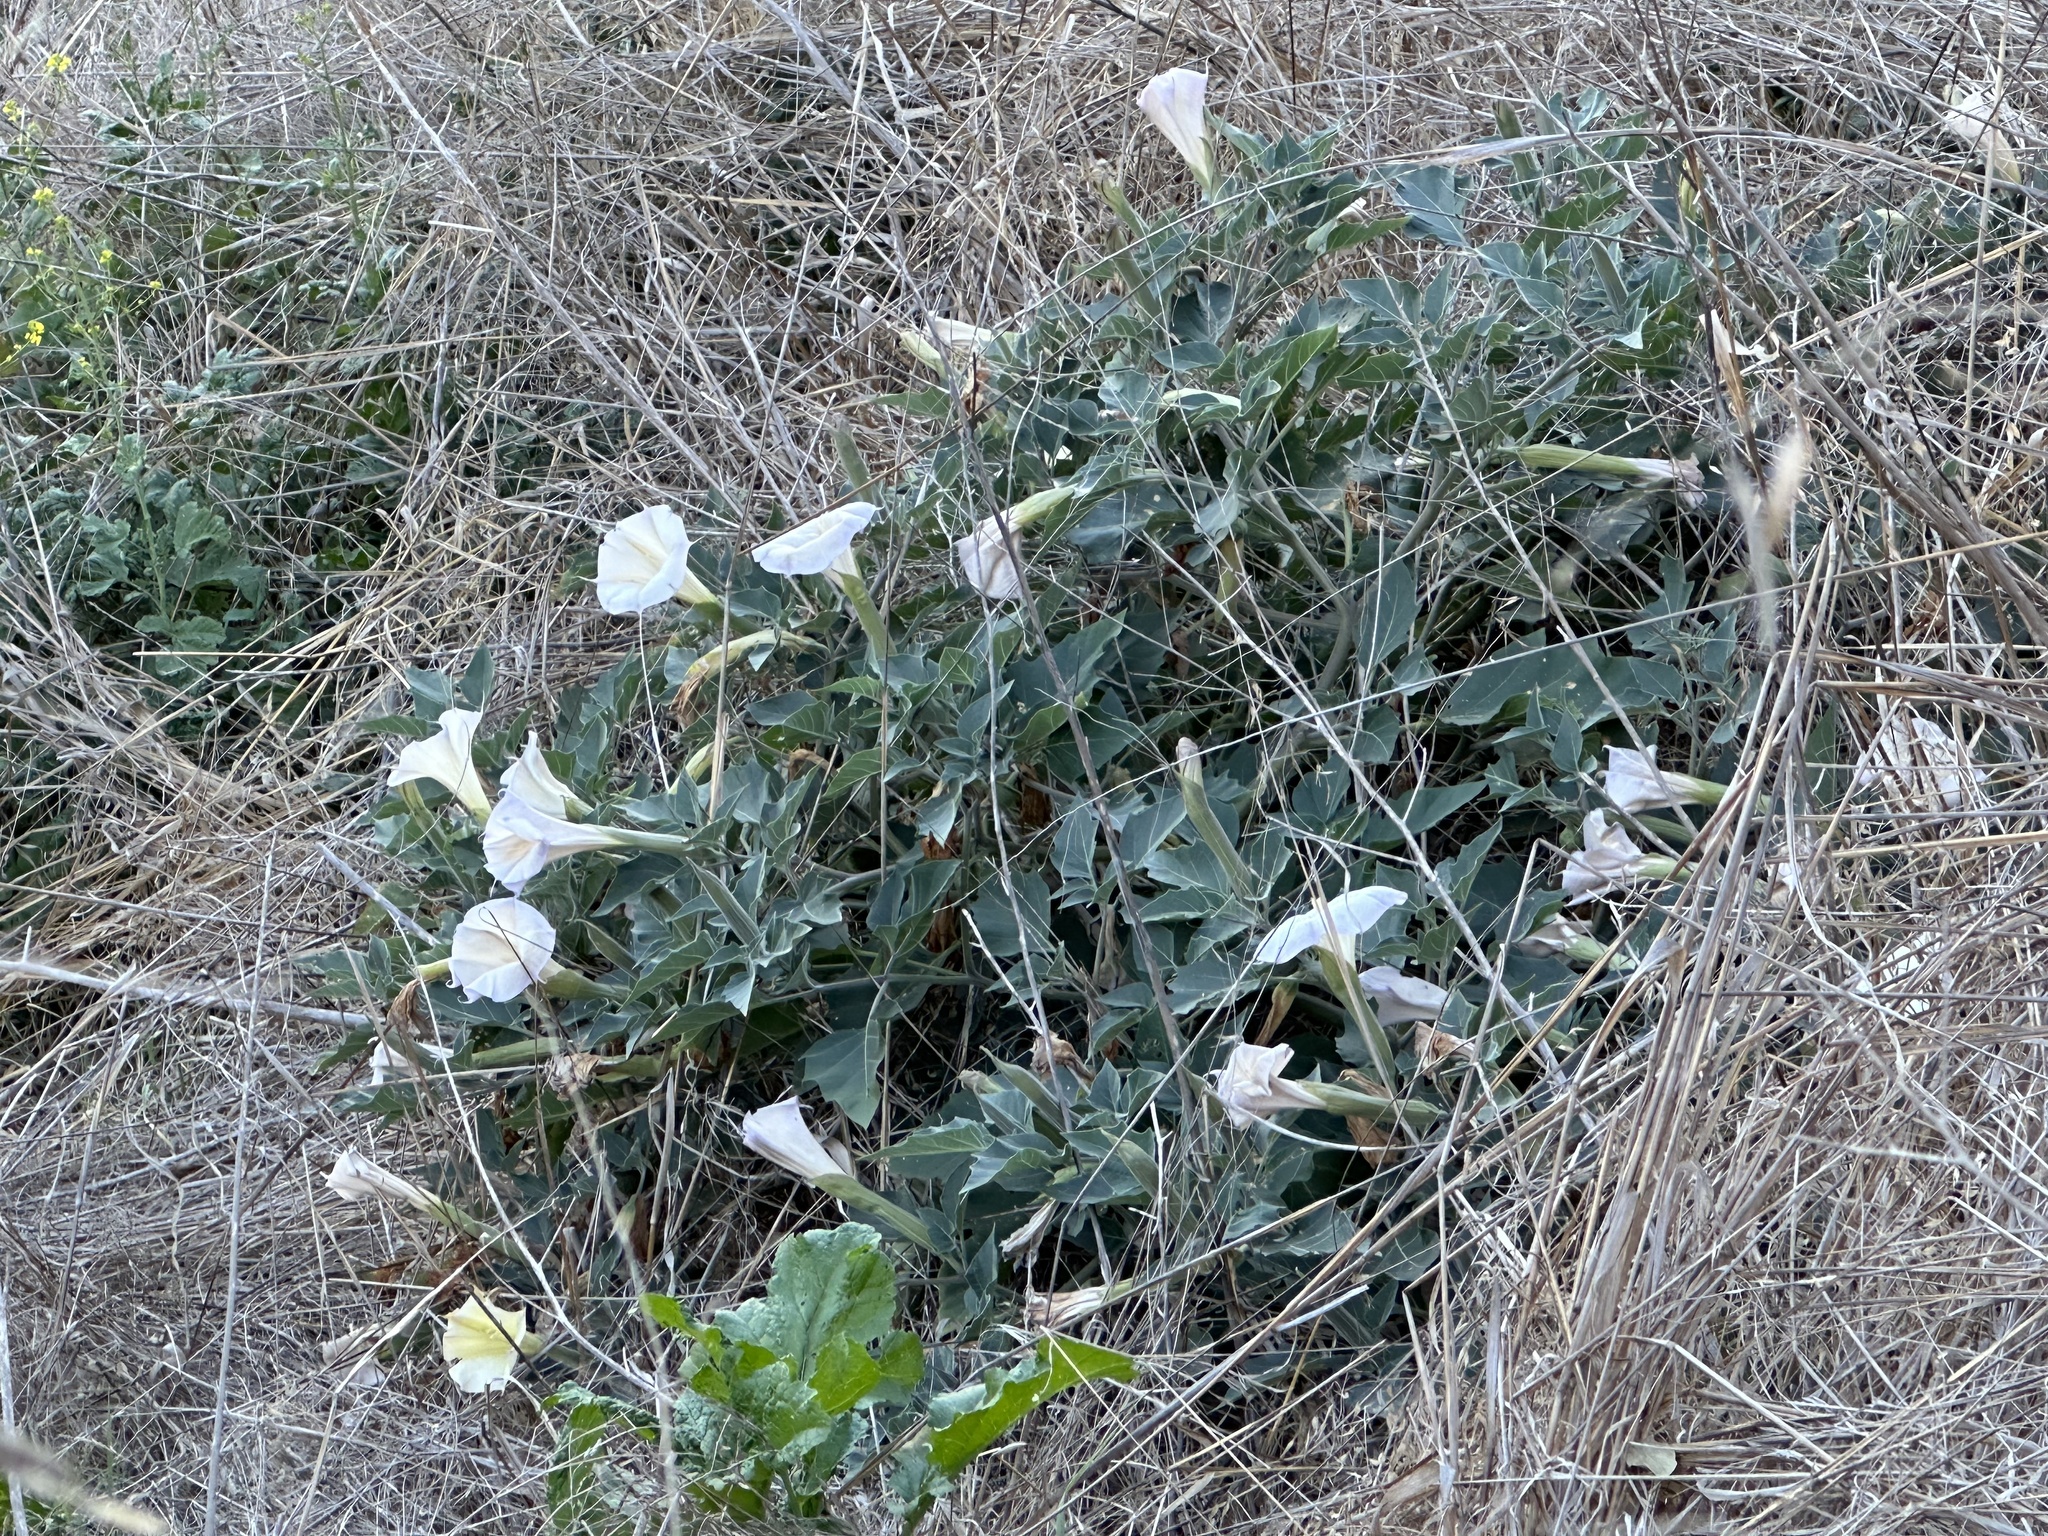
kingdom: Plantae
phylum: Tracheophyta
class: Magnoliopsida
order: Solanales
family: Solanaceae
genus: Datura
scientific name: Datura wrightii
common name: Sacred thorn-apple
